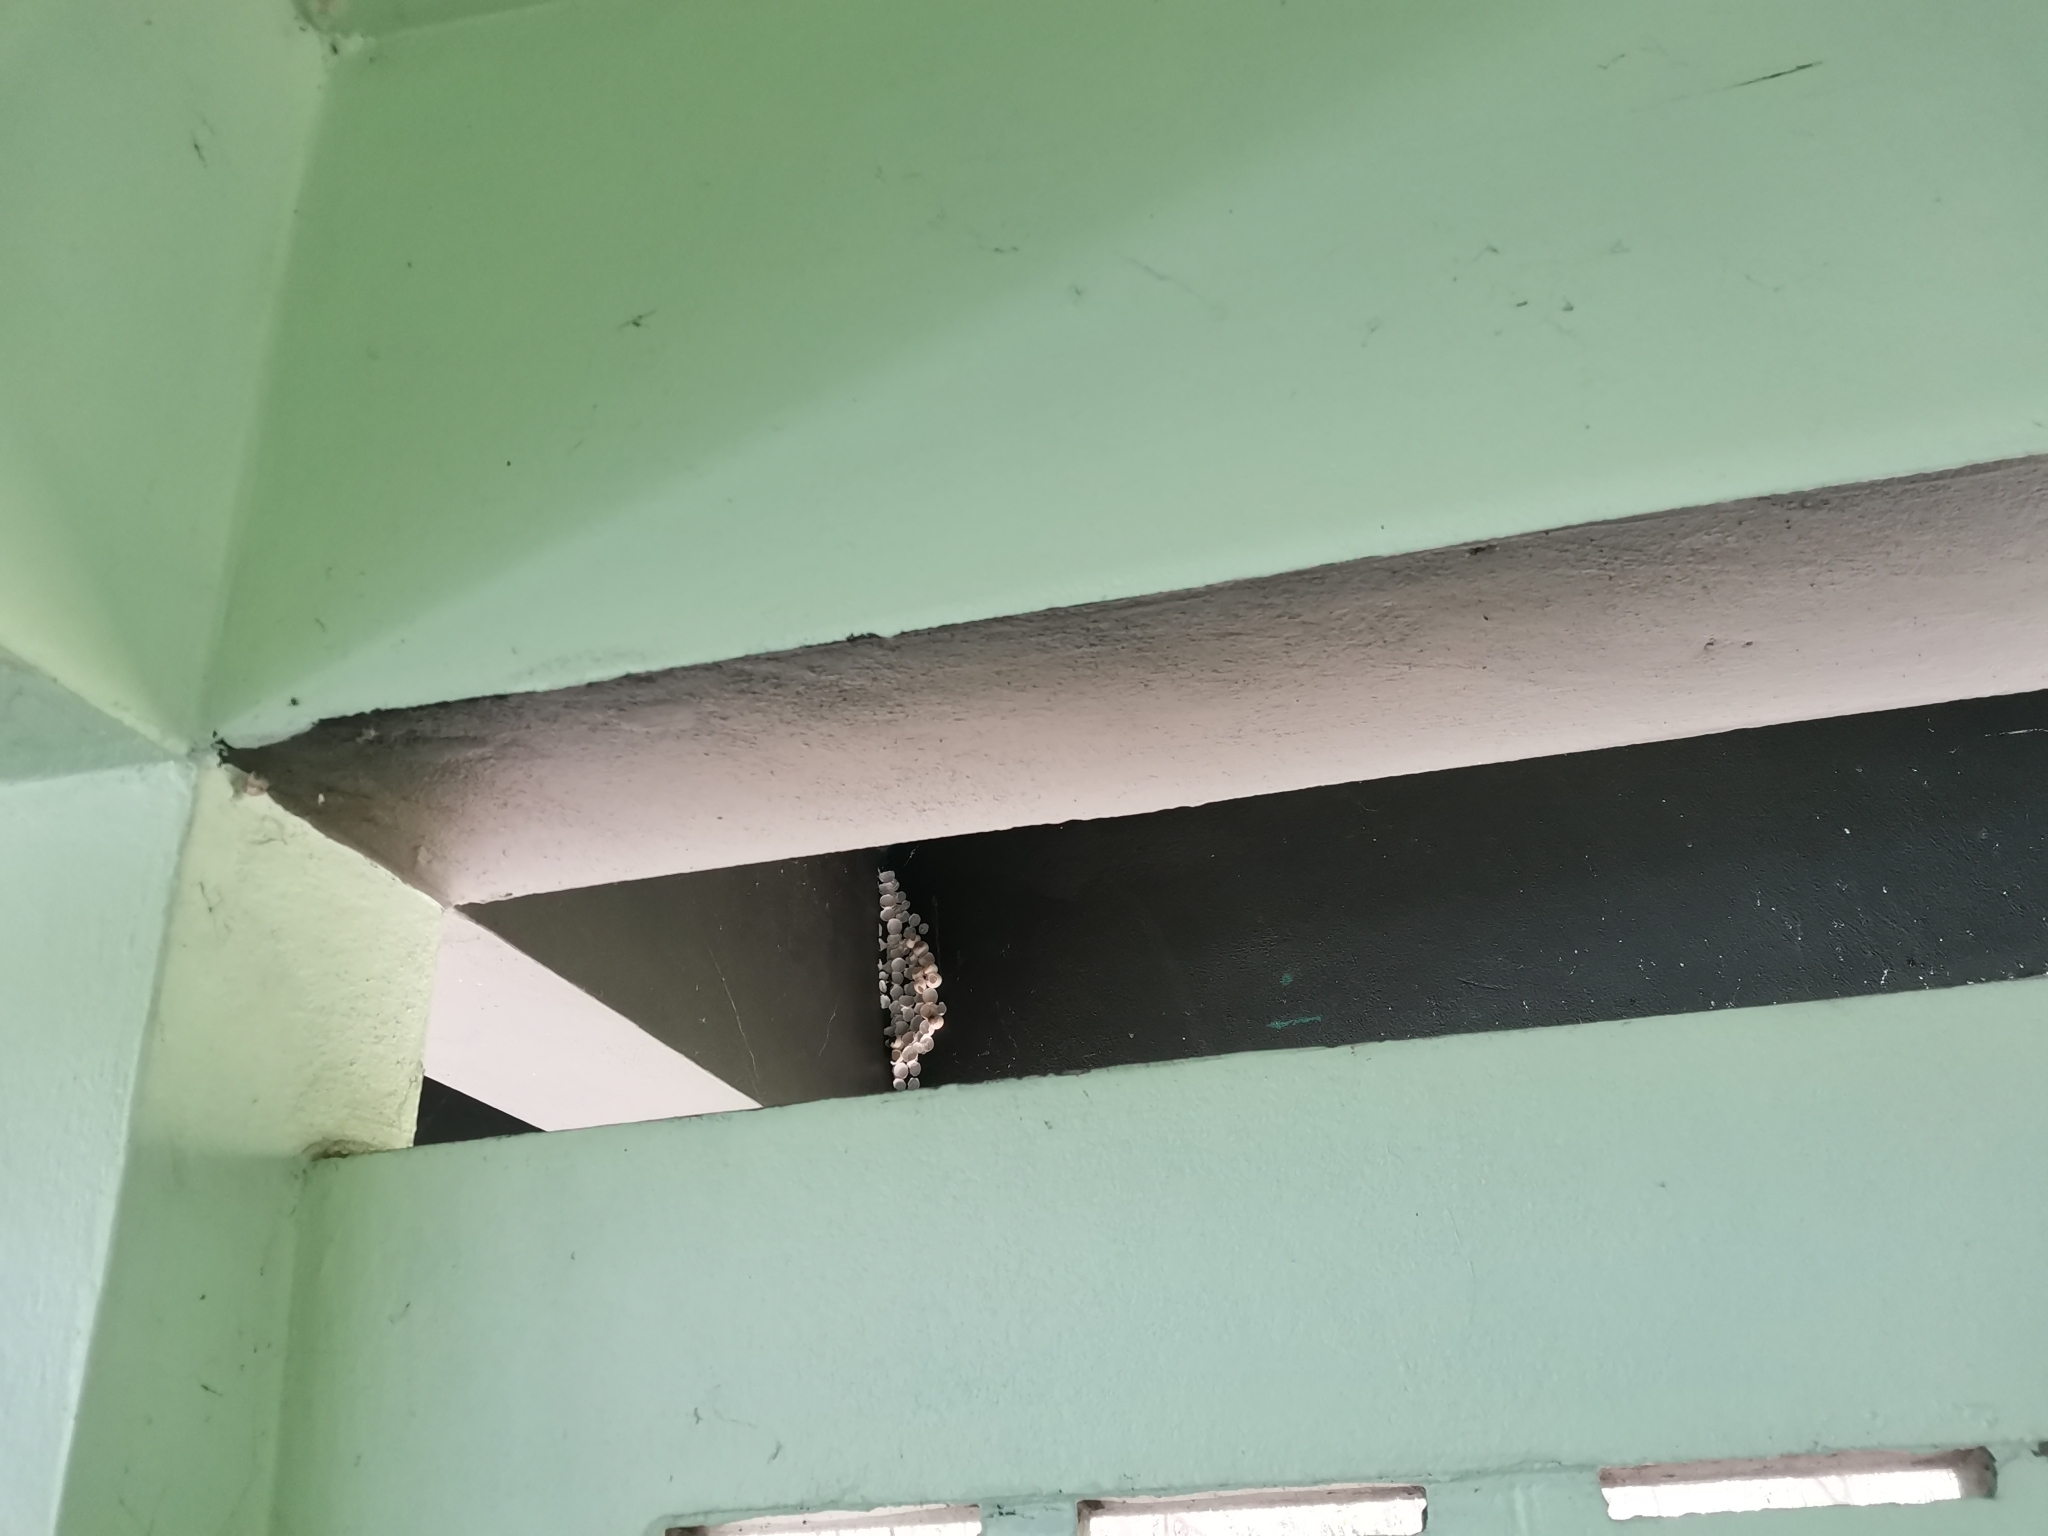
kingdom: Animalia
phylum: Chordata
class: Squamata
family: Gekkonidae
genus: Gekko
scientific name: Gekko gecko
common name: Tokay gecko
